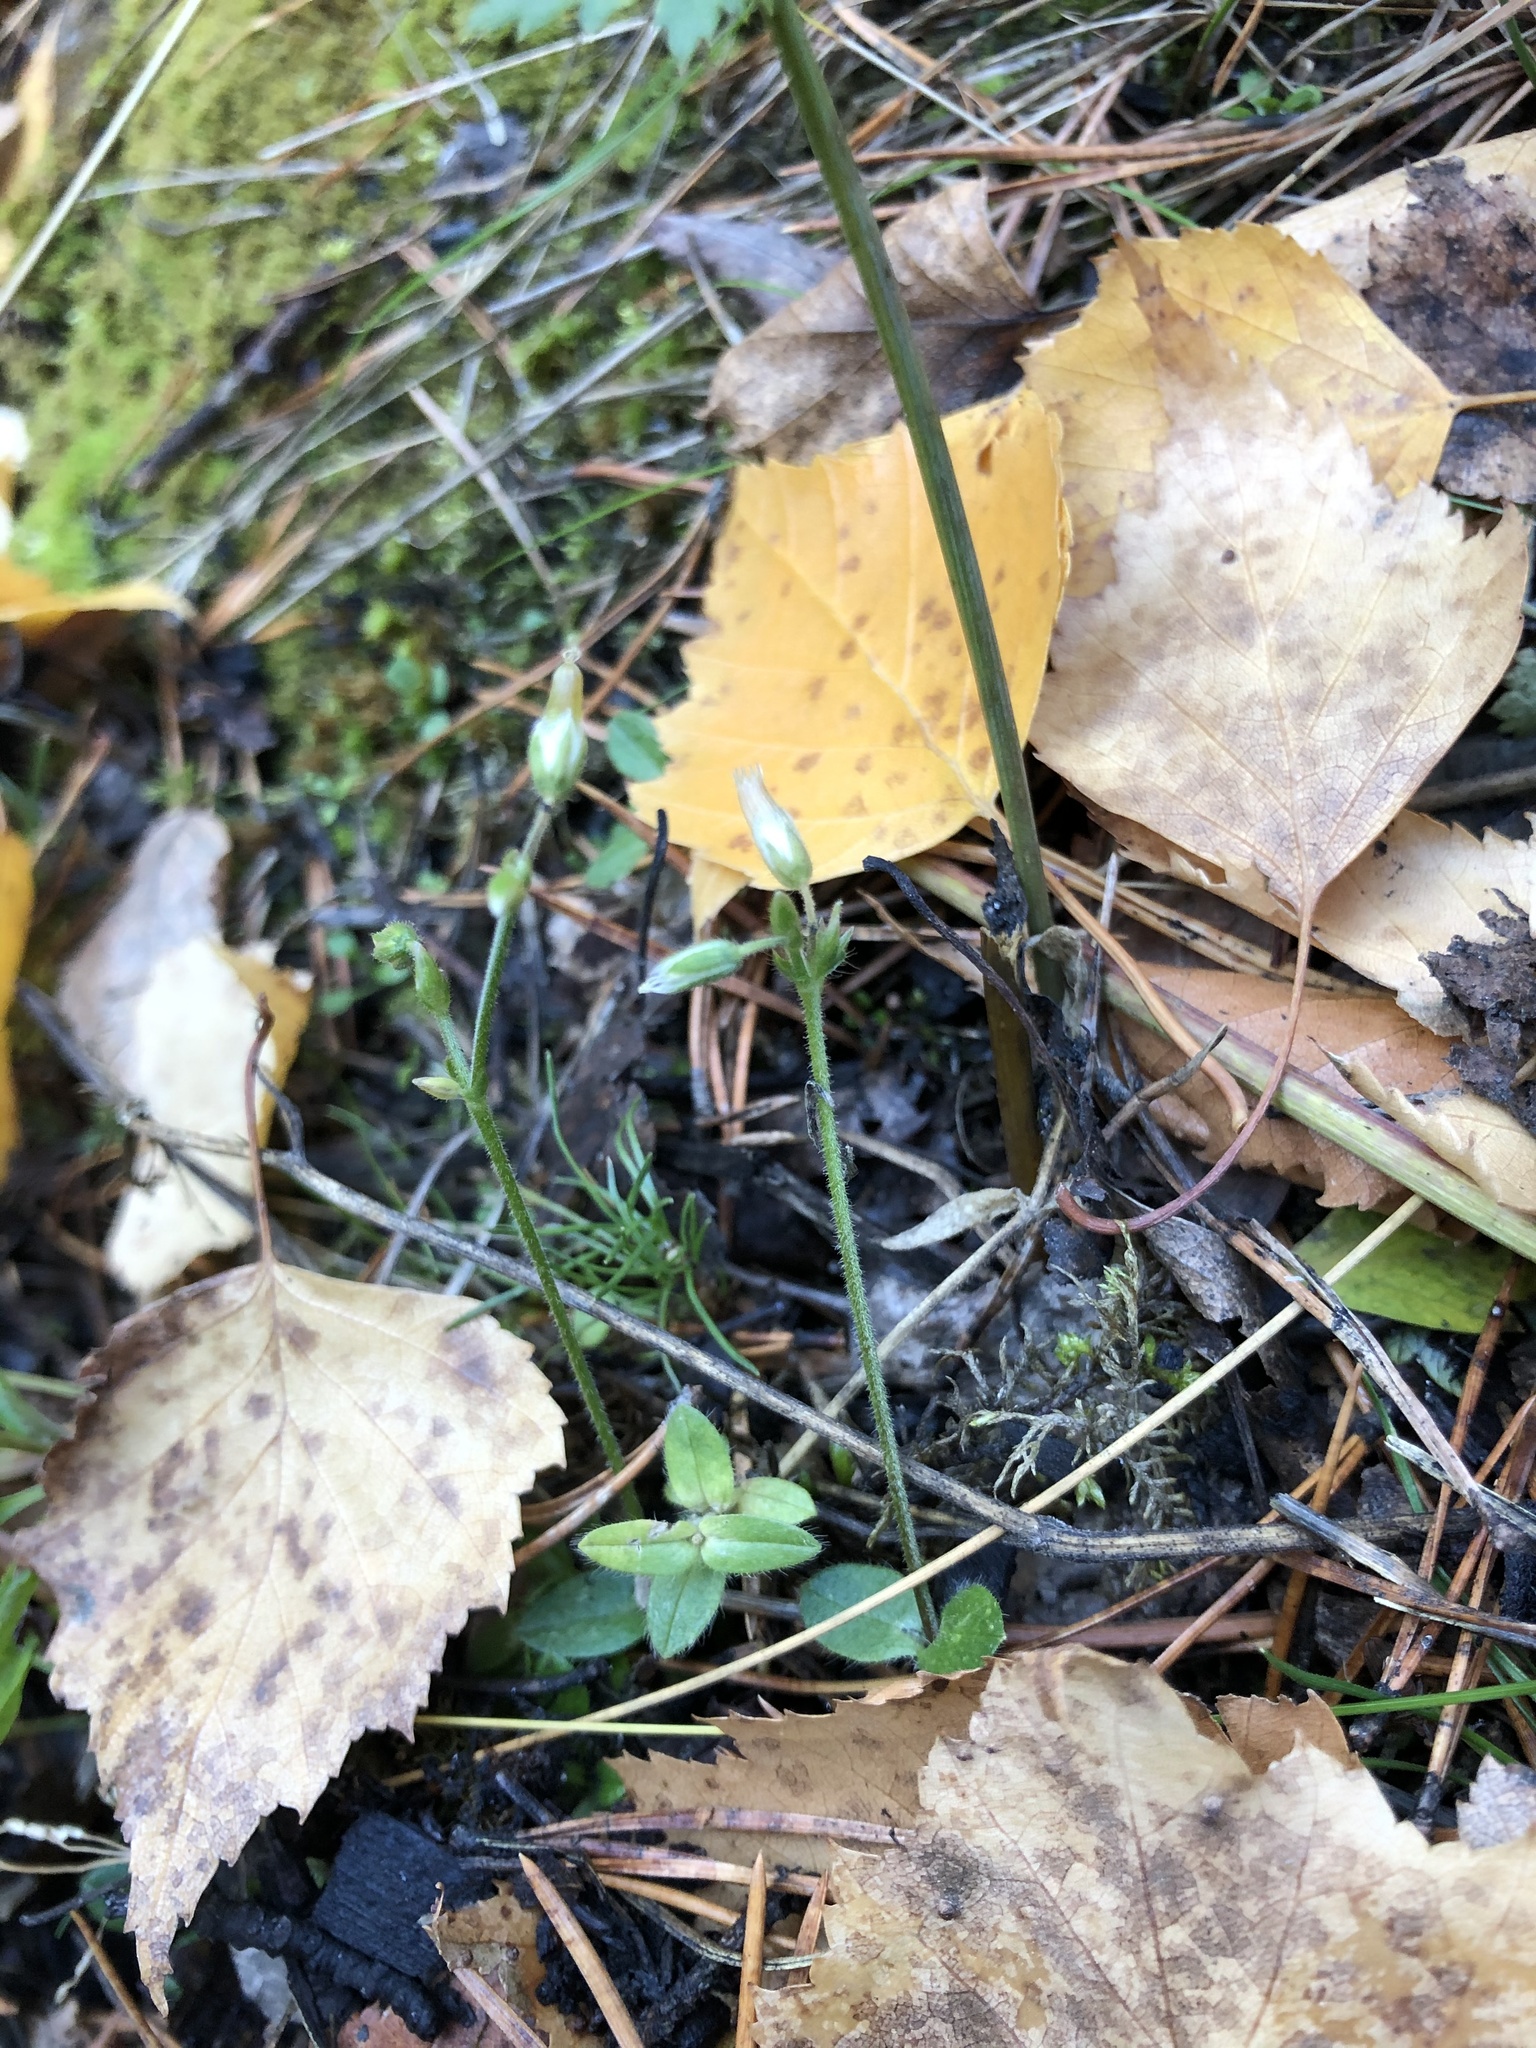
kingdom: Plantae
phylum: Tracheophyta
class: Magnoliopsida
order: Caryophyllales
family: Caryophyllaceae
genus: Cerastium
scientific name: Cerastium holosteoides
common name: Big chickweed
